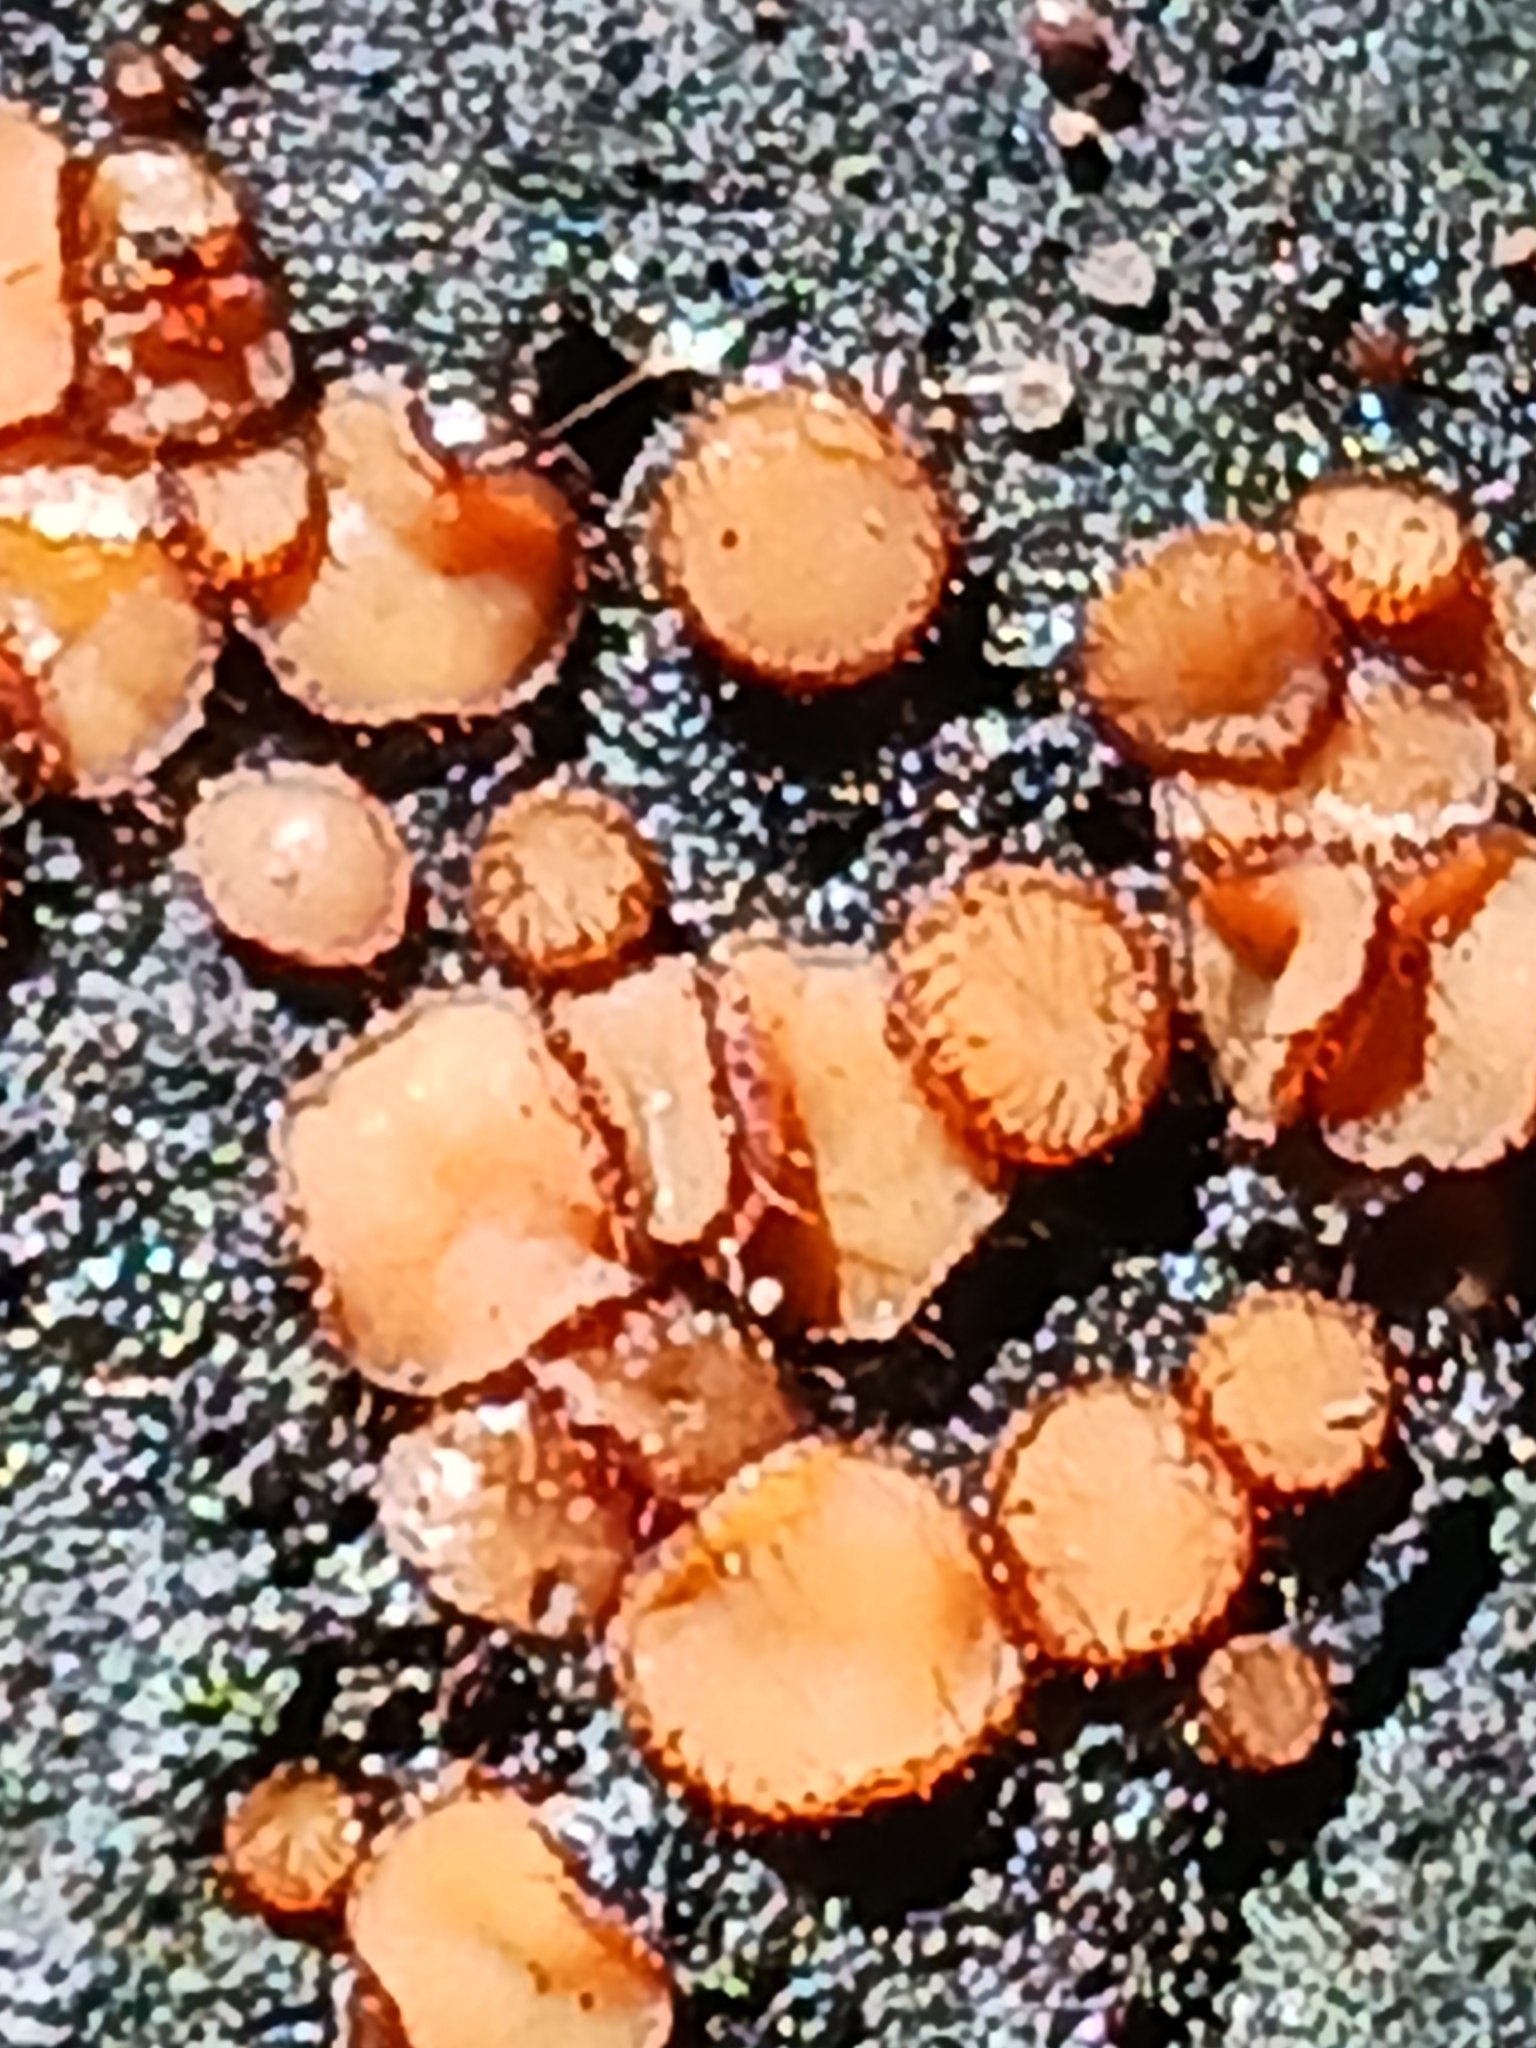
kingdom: Fungi
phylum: Ascomycota
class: Pezizomycetes
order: Pezizales
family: Pyronemataceae
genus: Scutellinia
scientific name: Scutellinia
